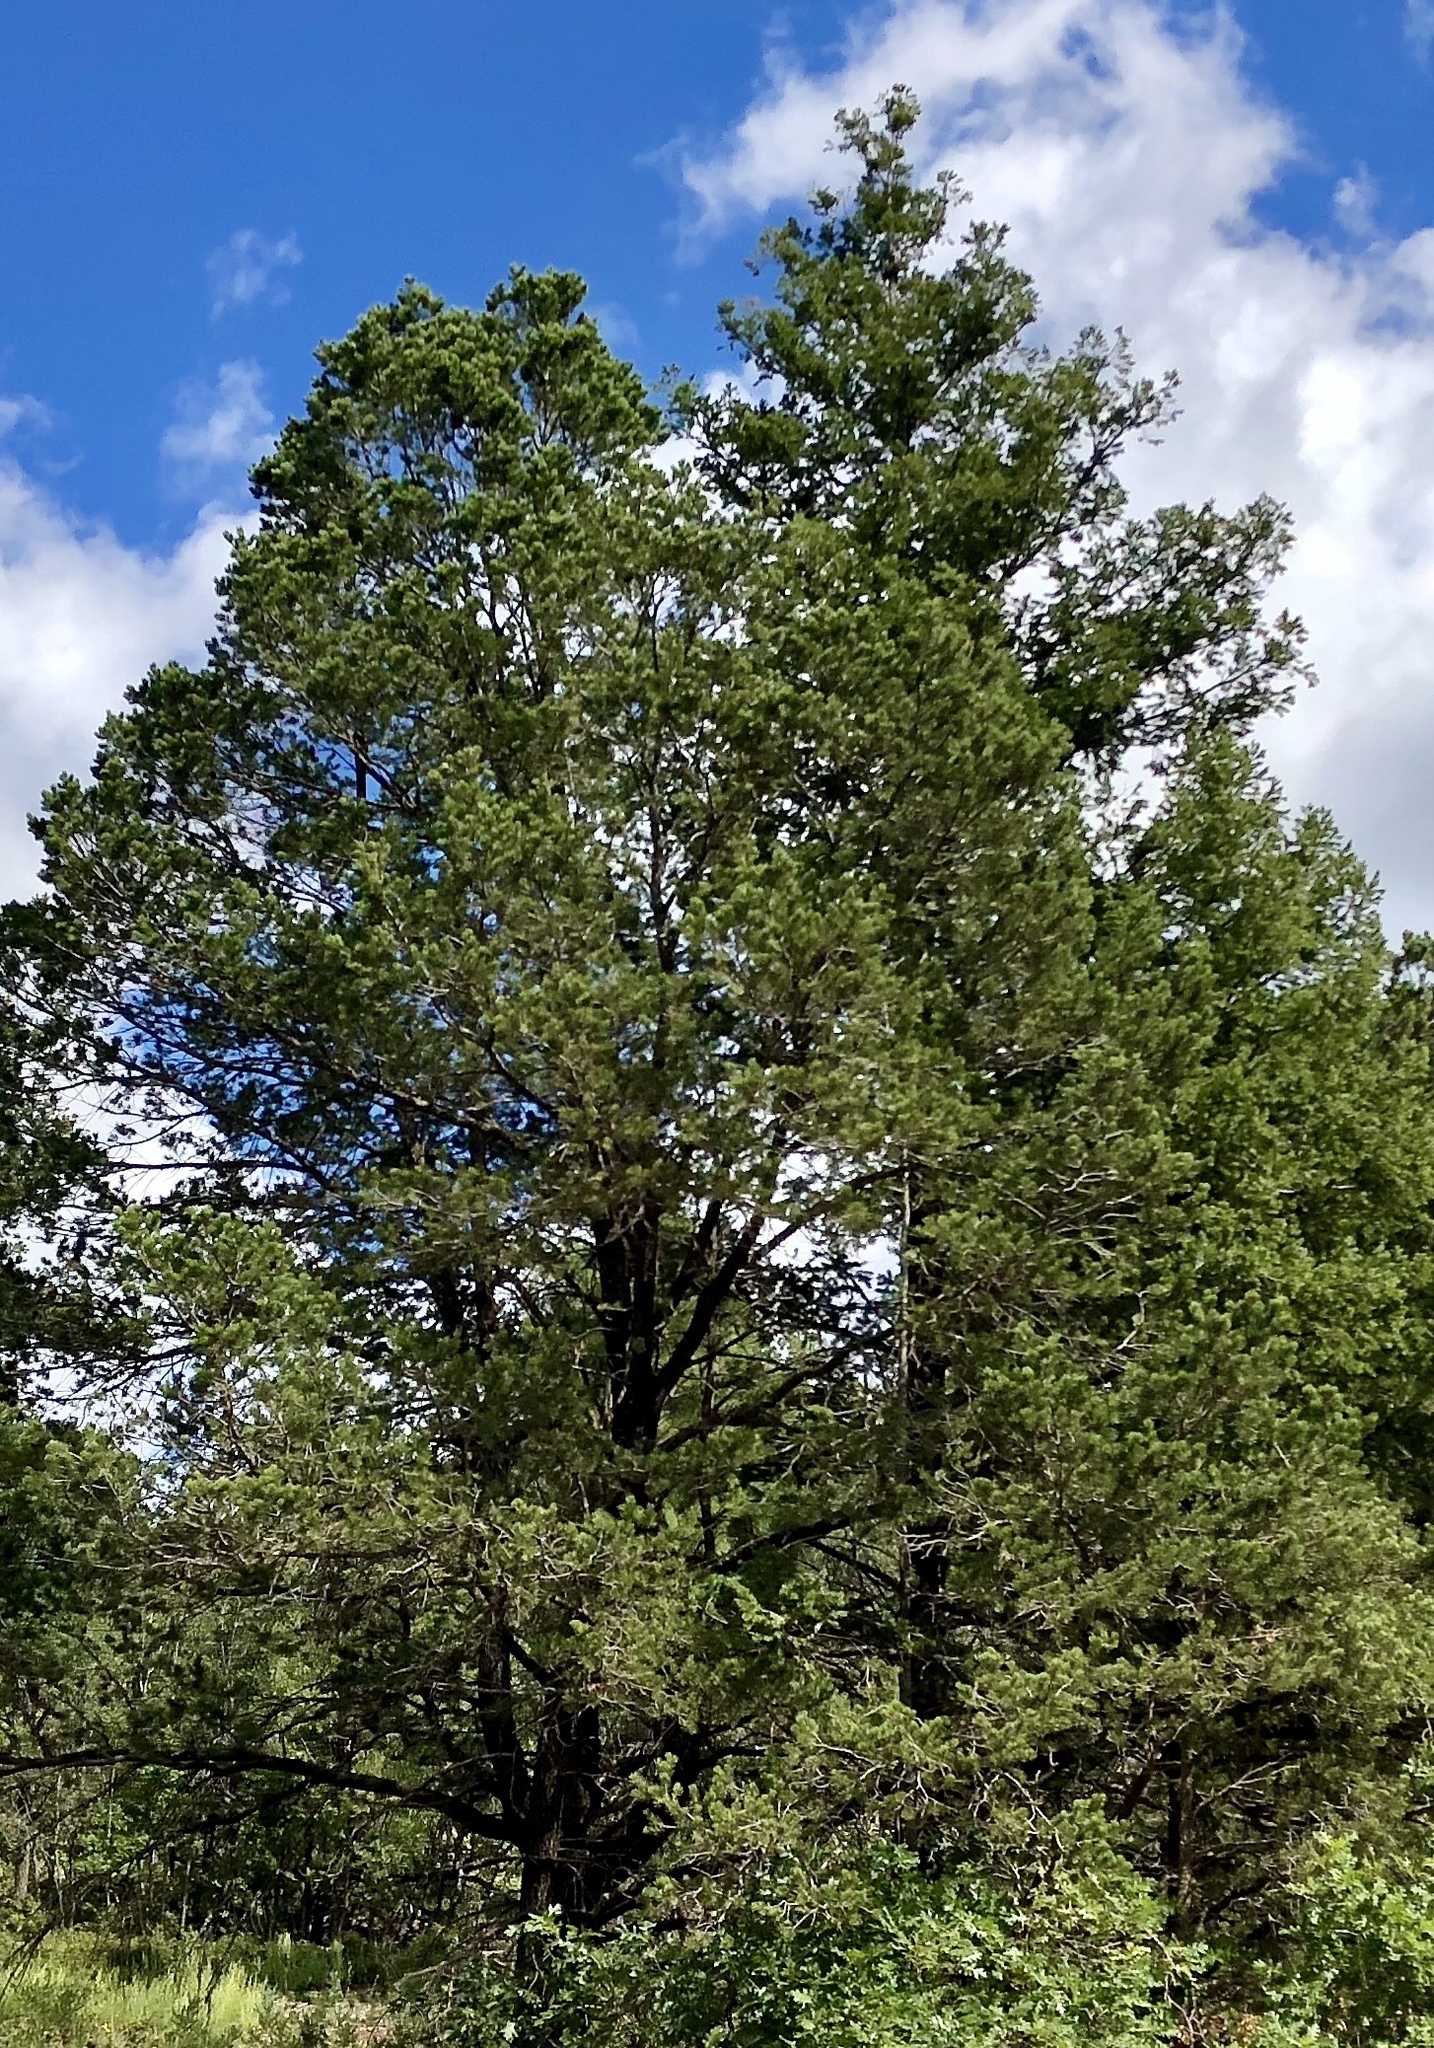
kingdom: Plantae
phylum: Tracheophyta
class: Pinopsida
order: Pinales
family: Pinaceae
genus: Pseudotsuga
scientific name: Pseudotsuga menziesii
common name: Douglas fir
